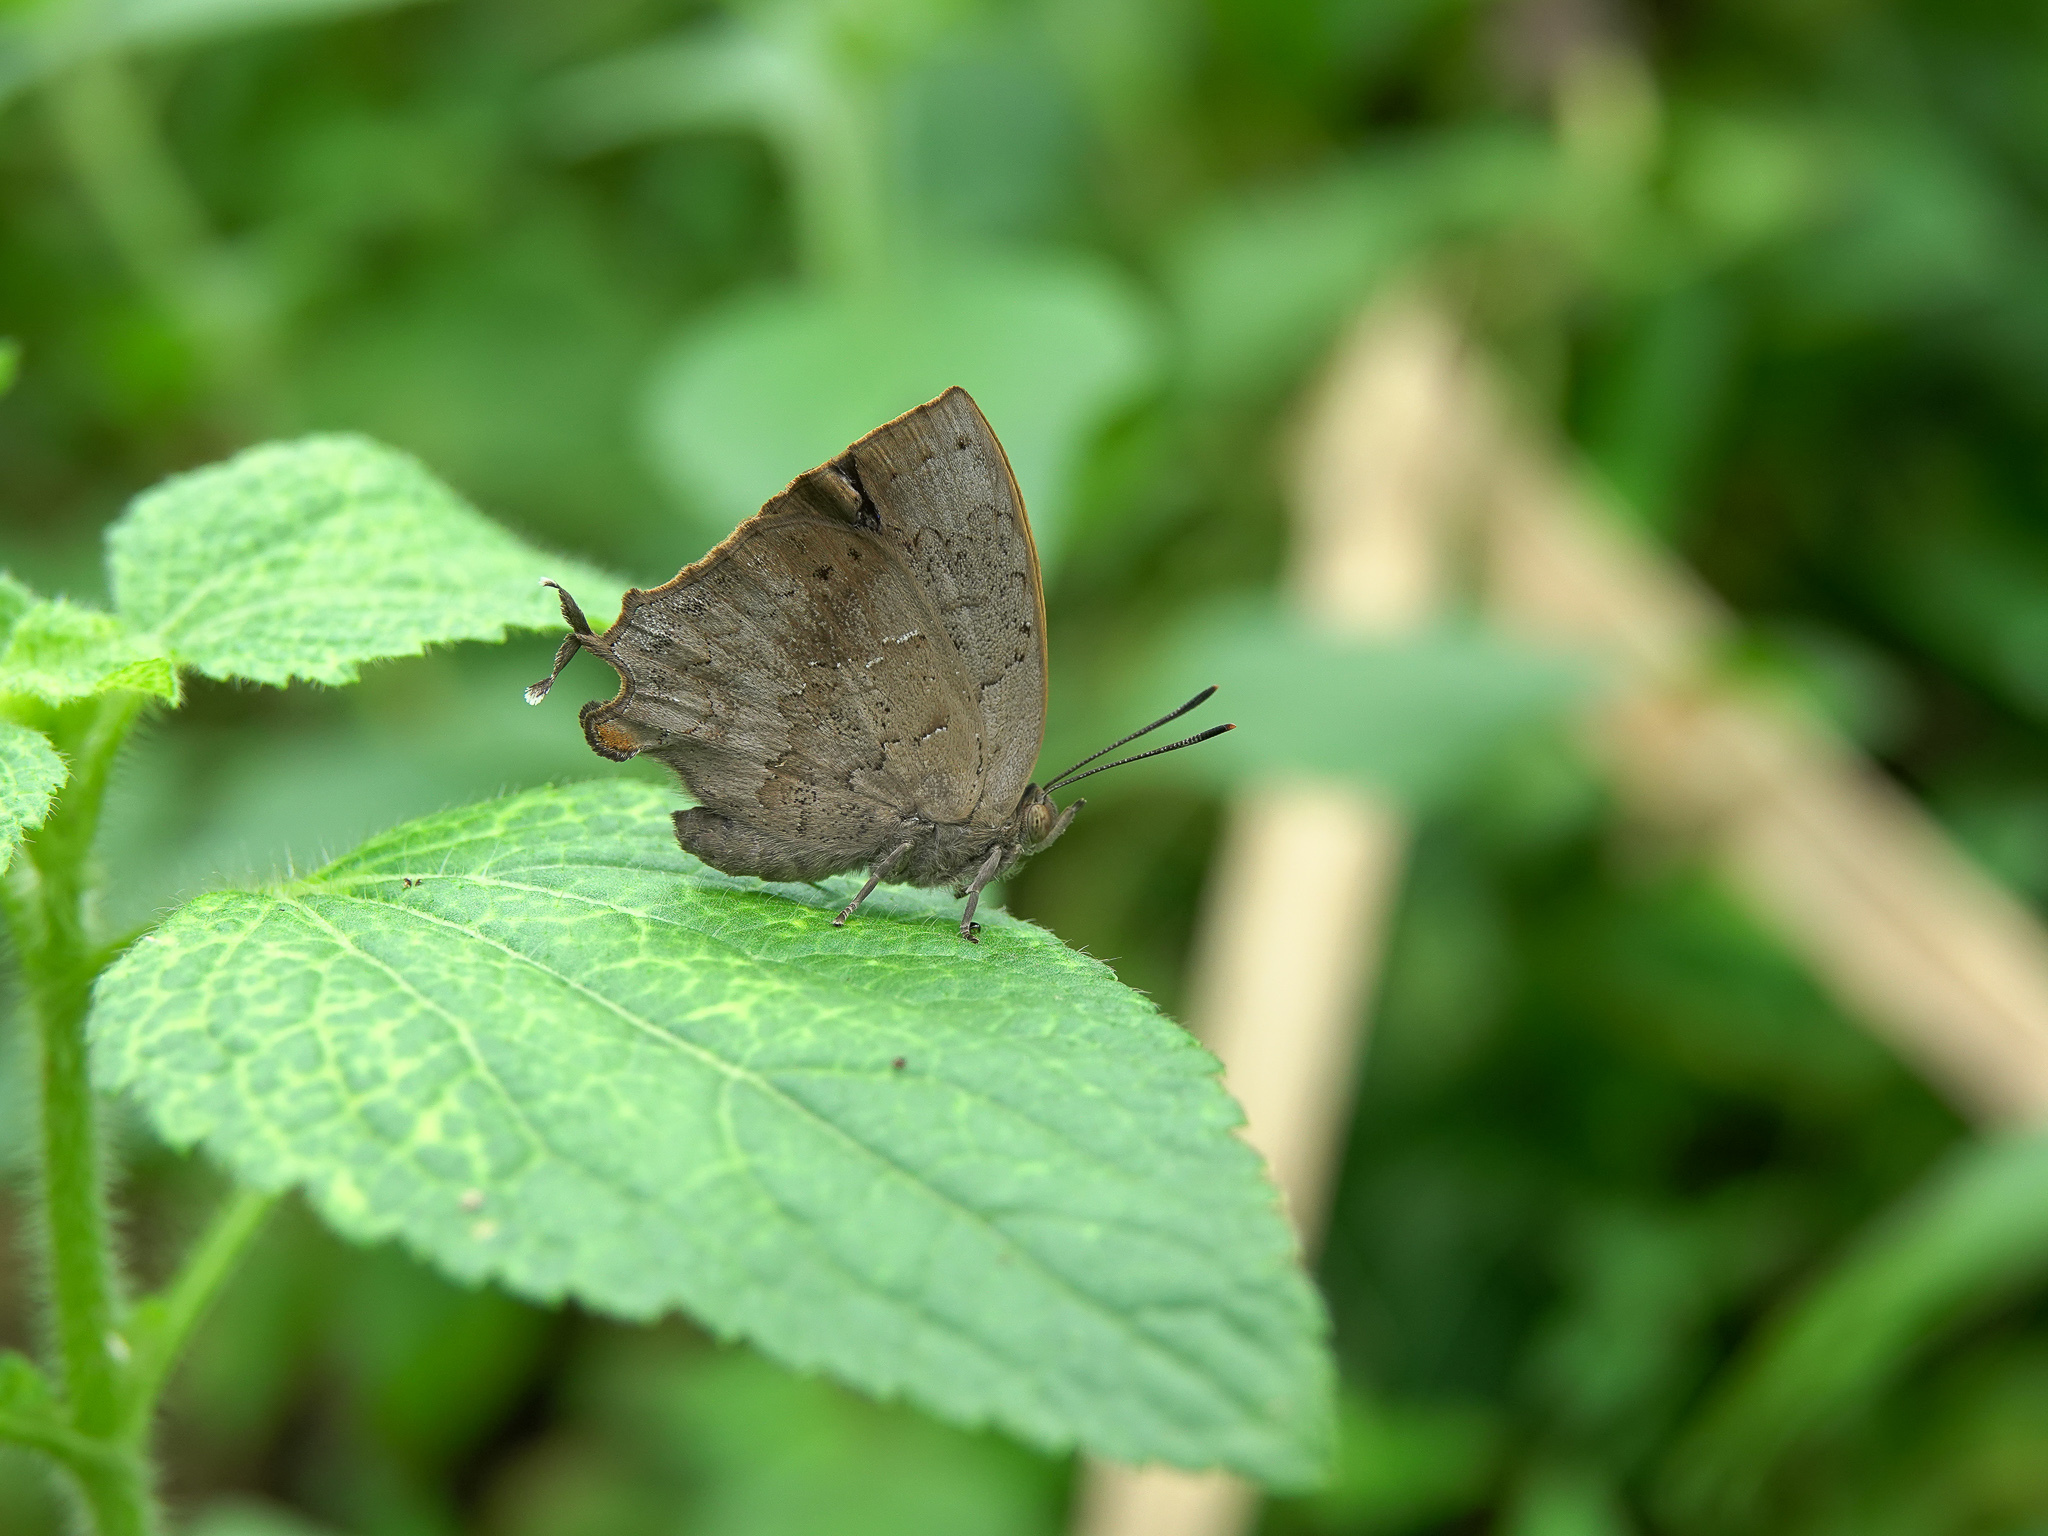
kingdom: Animalia
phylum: Arthropoda
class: Insecta
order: Lepidoptera
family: Lycaenidae
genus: Surendra
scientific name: Surendra quercetorum
